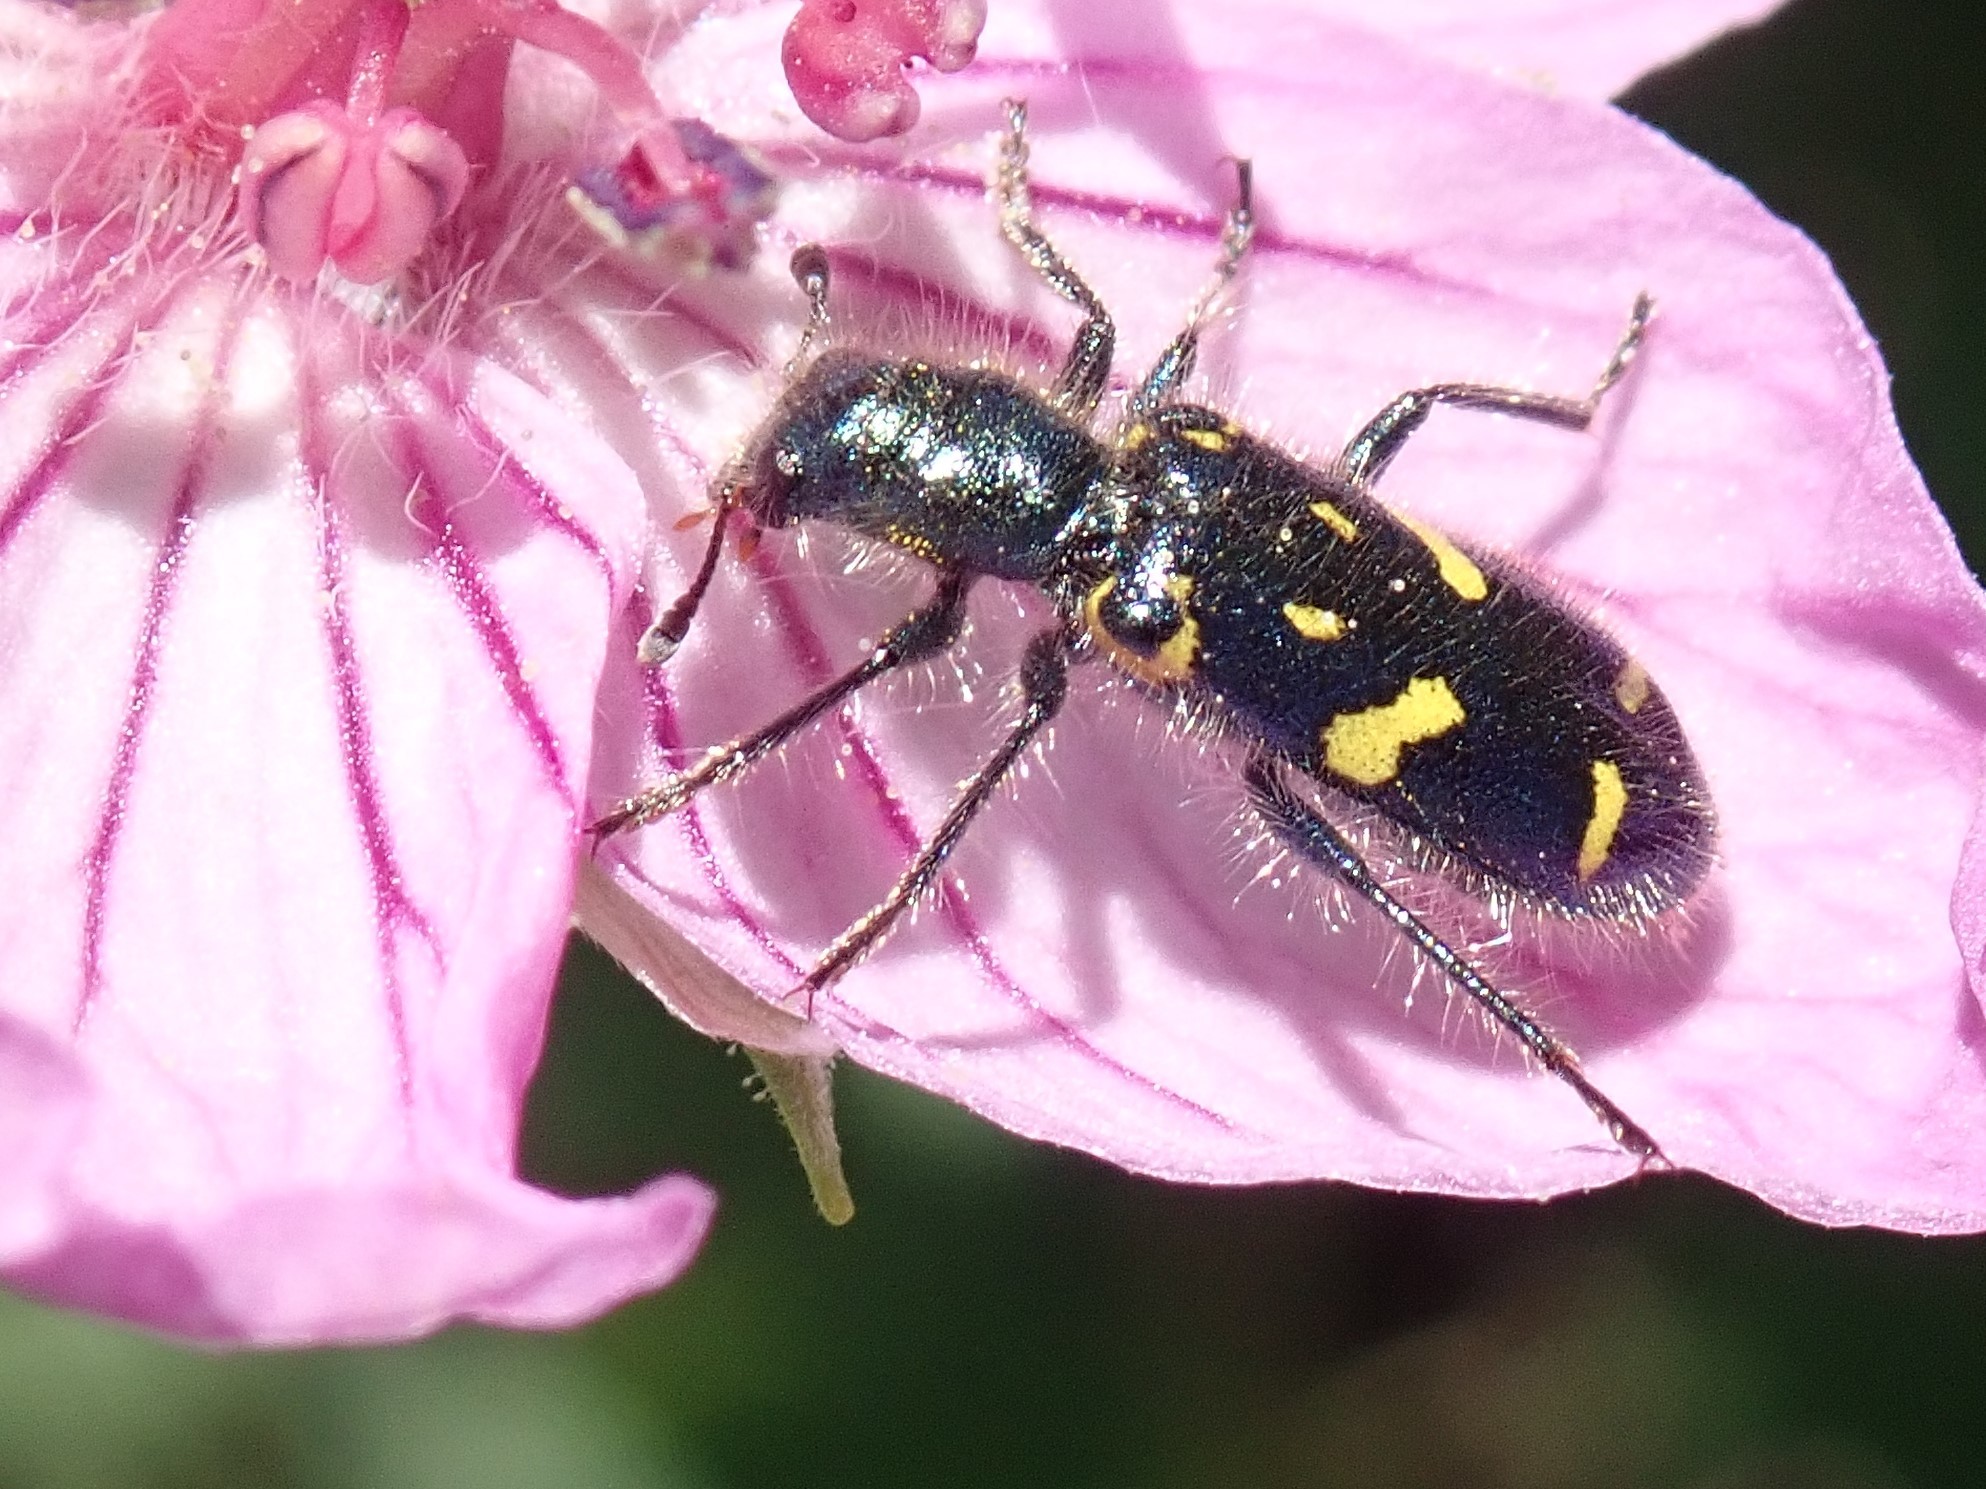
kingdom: Animalia
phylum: Arthropoda
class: Insecta
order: Coleoptera
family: Cleridae
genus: Trichodes
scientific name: Trichodes ornatus
